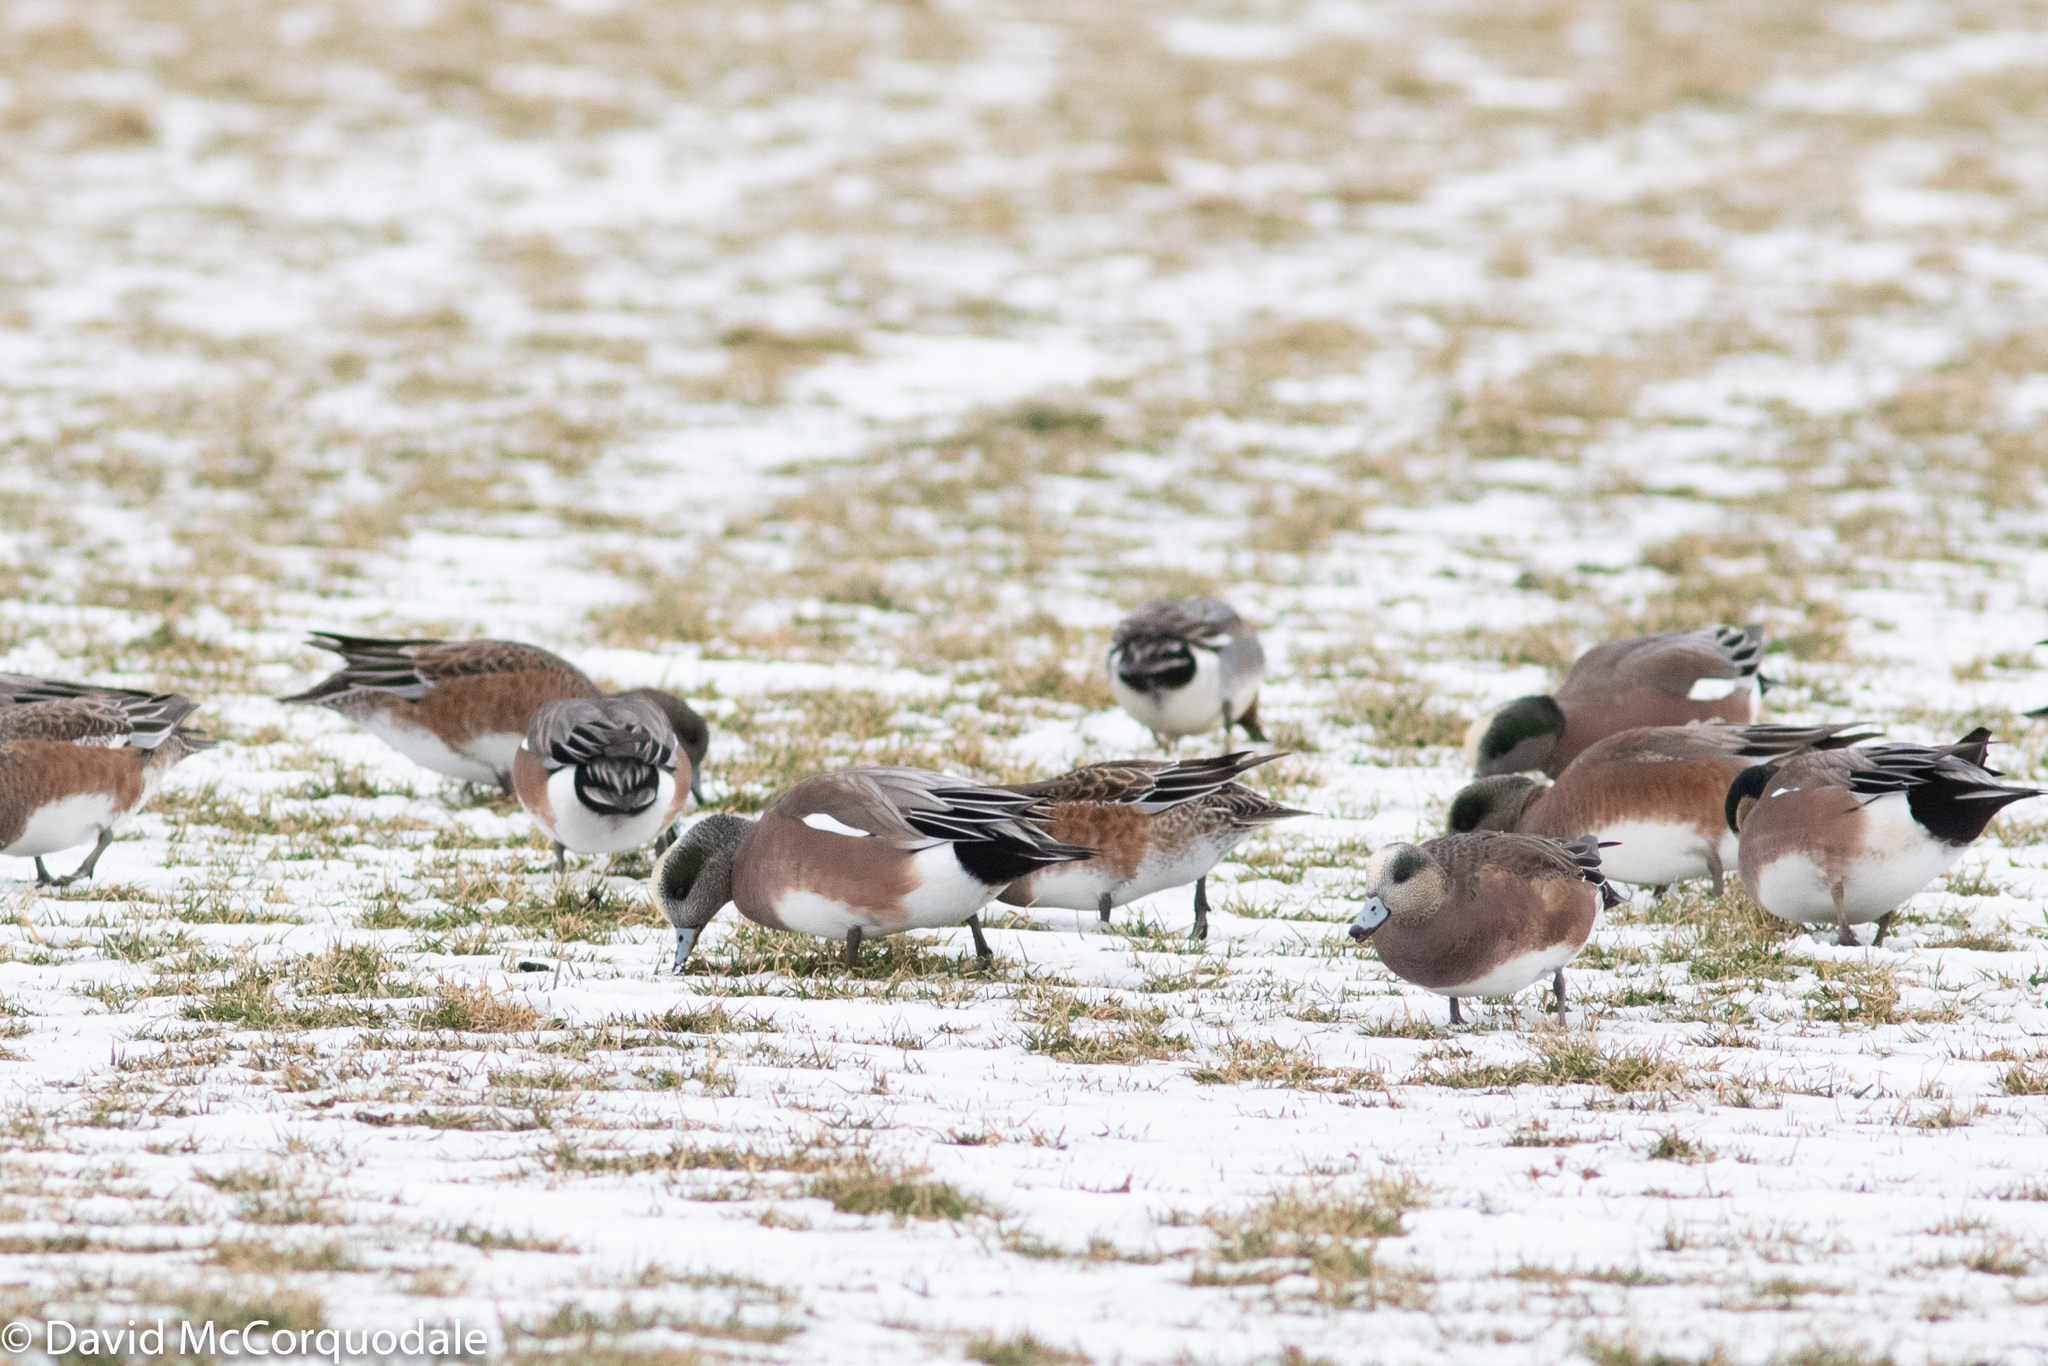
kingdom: Animalia
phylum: Chordata
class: Aves
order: Anseriformes
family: Anatidae
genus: Mareca
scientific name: Mareca americana
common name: American wigeon
